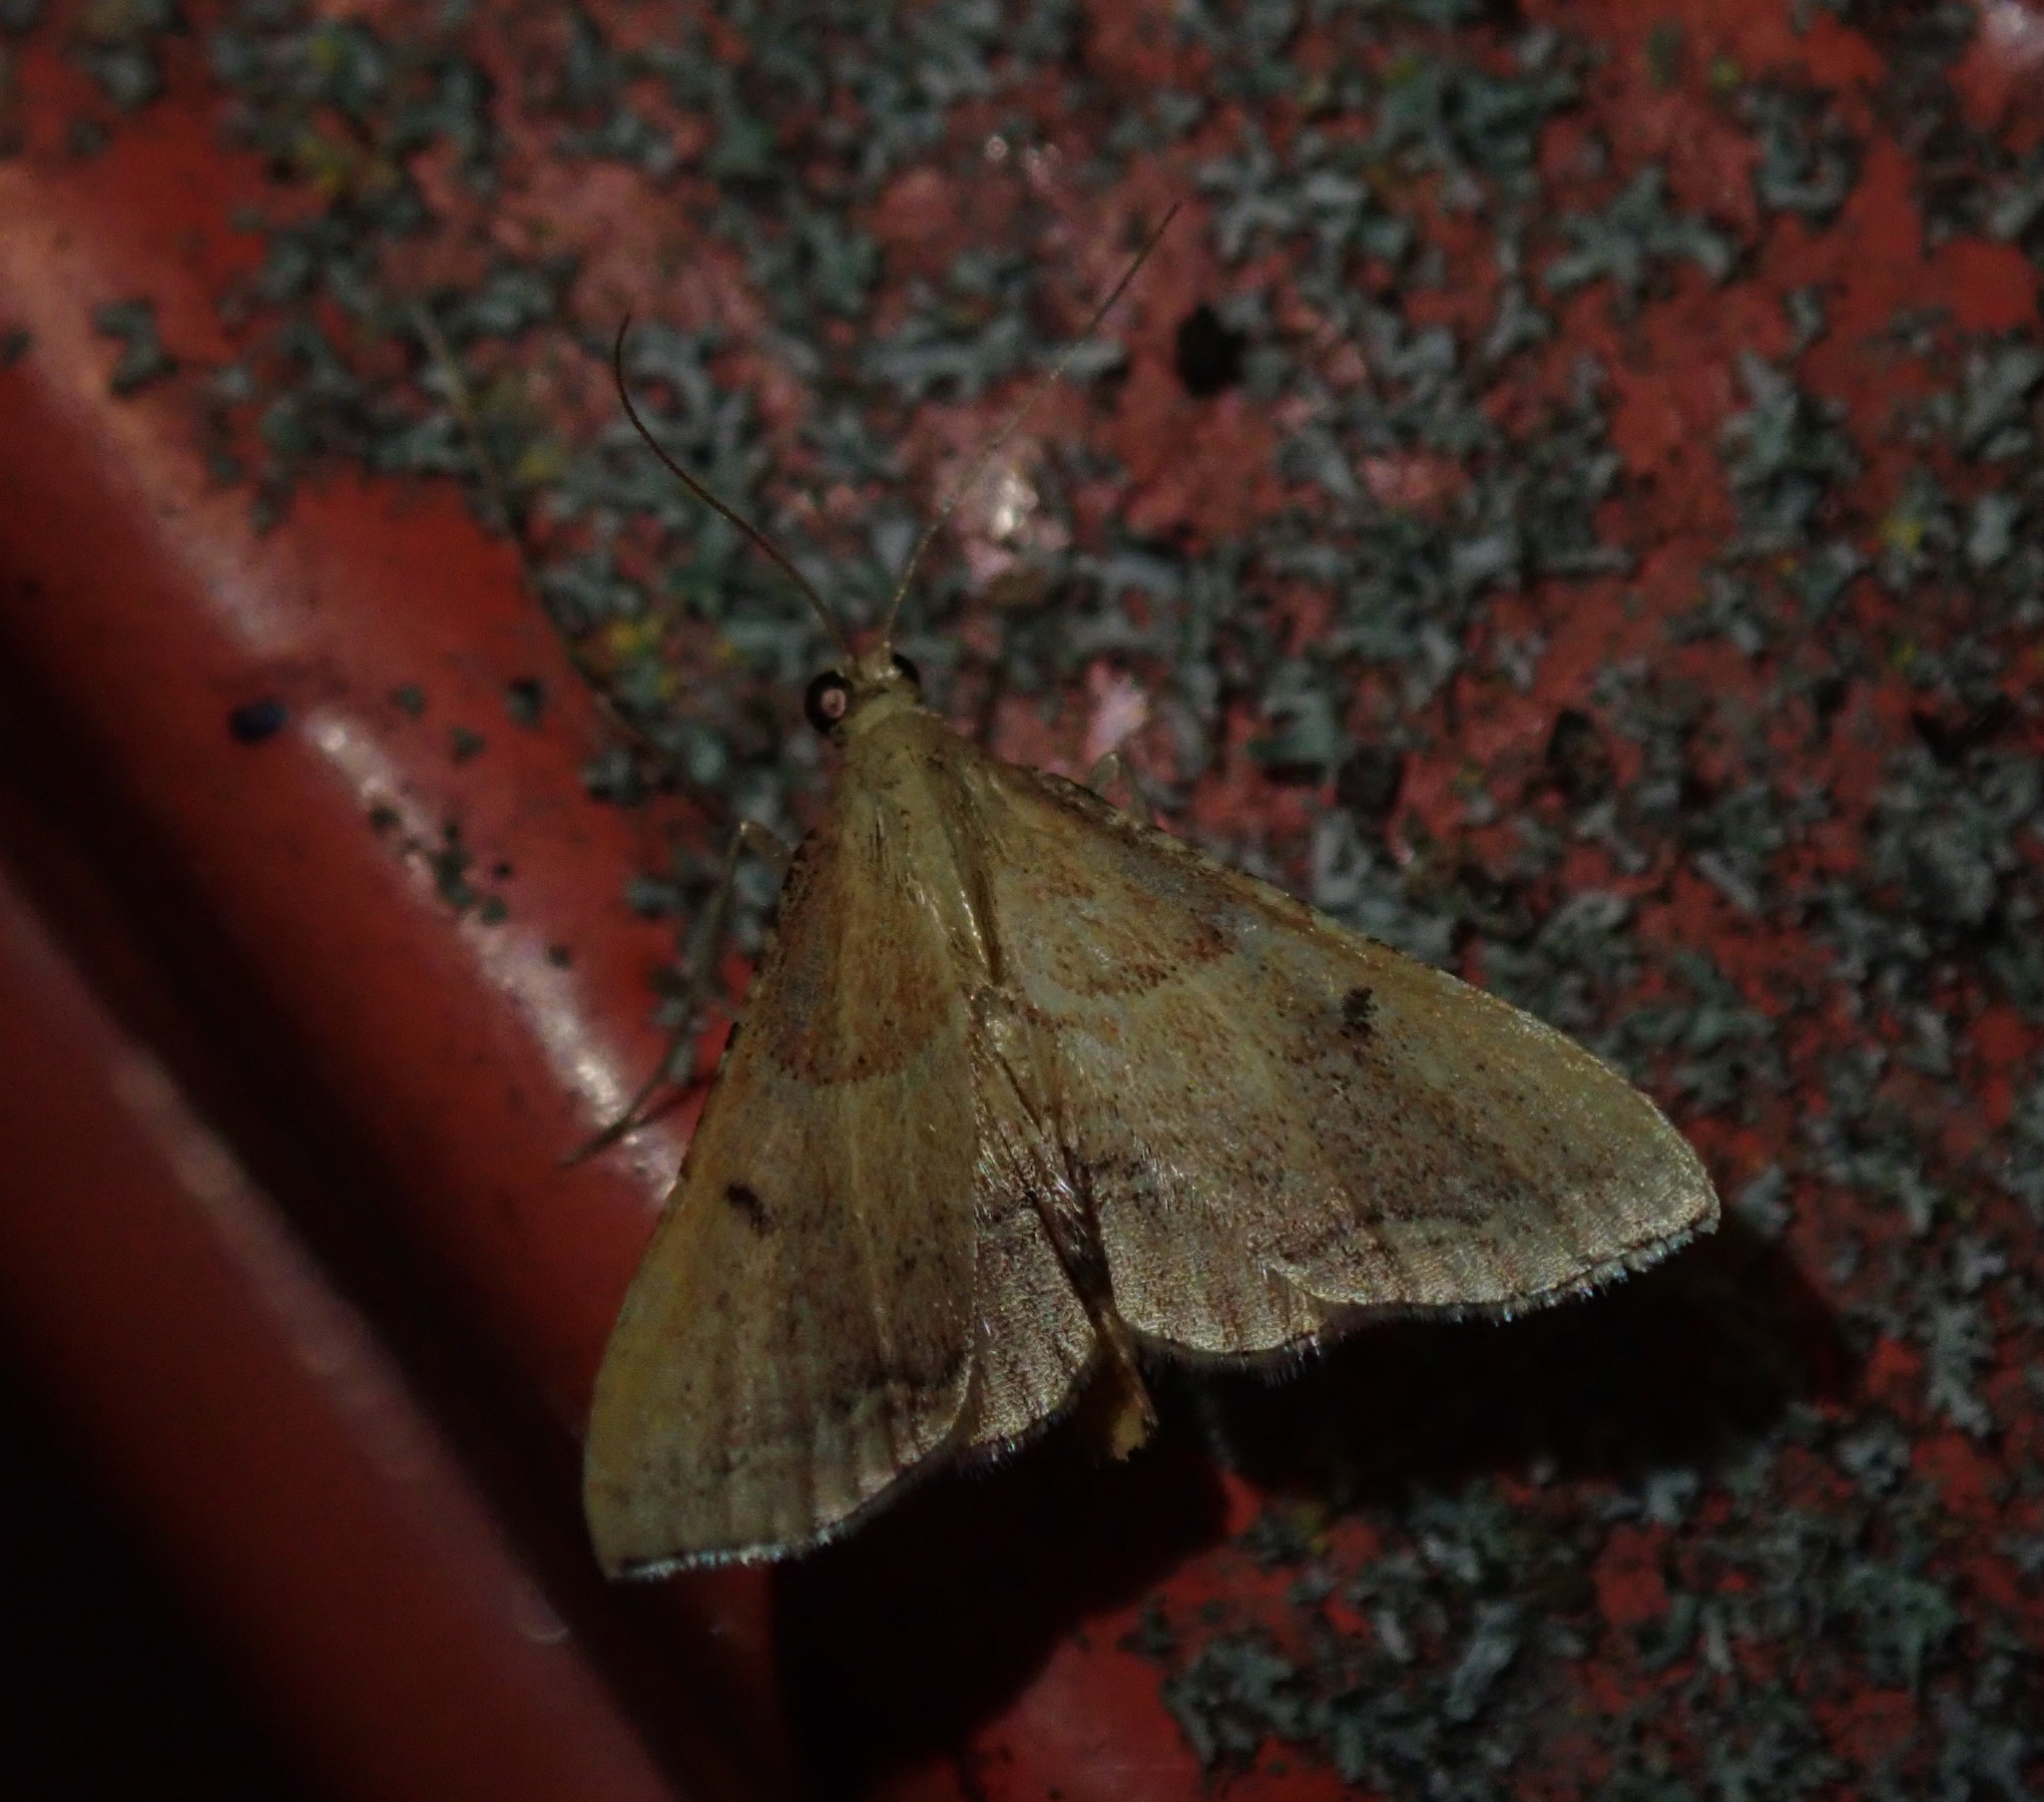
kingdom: Animalia
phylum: Arthropoda
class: Insecta
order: Lepidoptera
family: Pyralidae
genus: Endotricha
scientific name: Endotricha flammealis
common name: Rosy tabby
